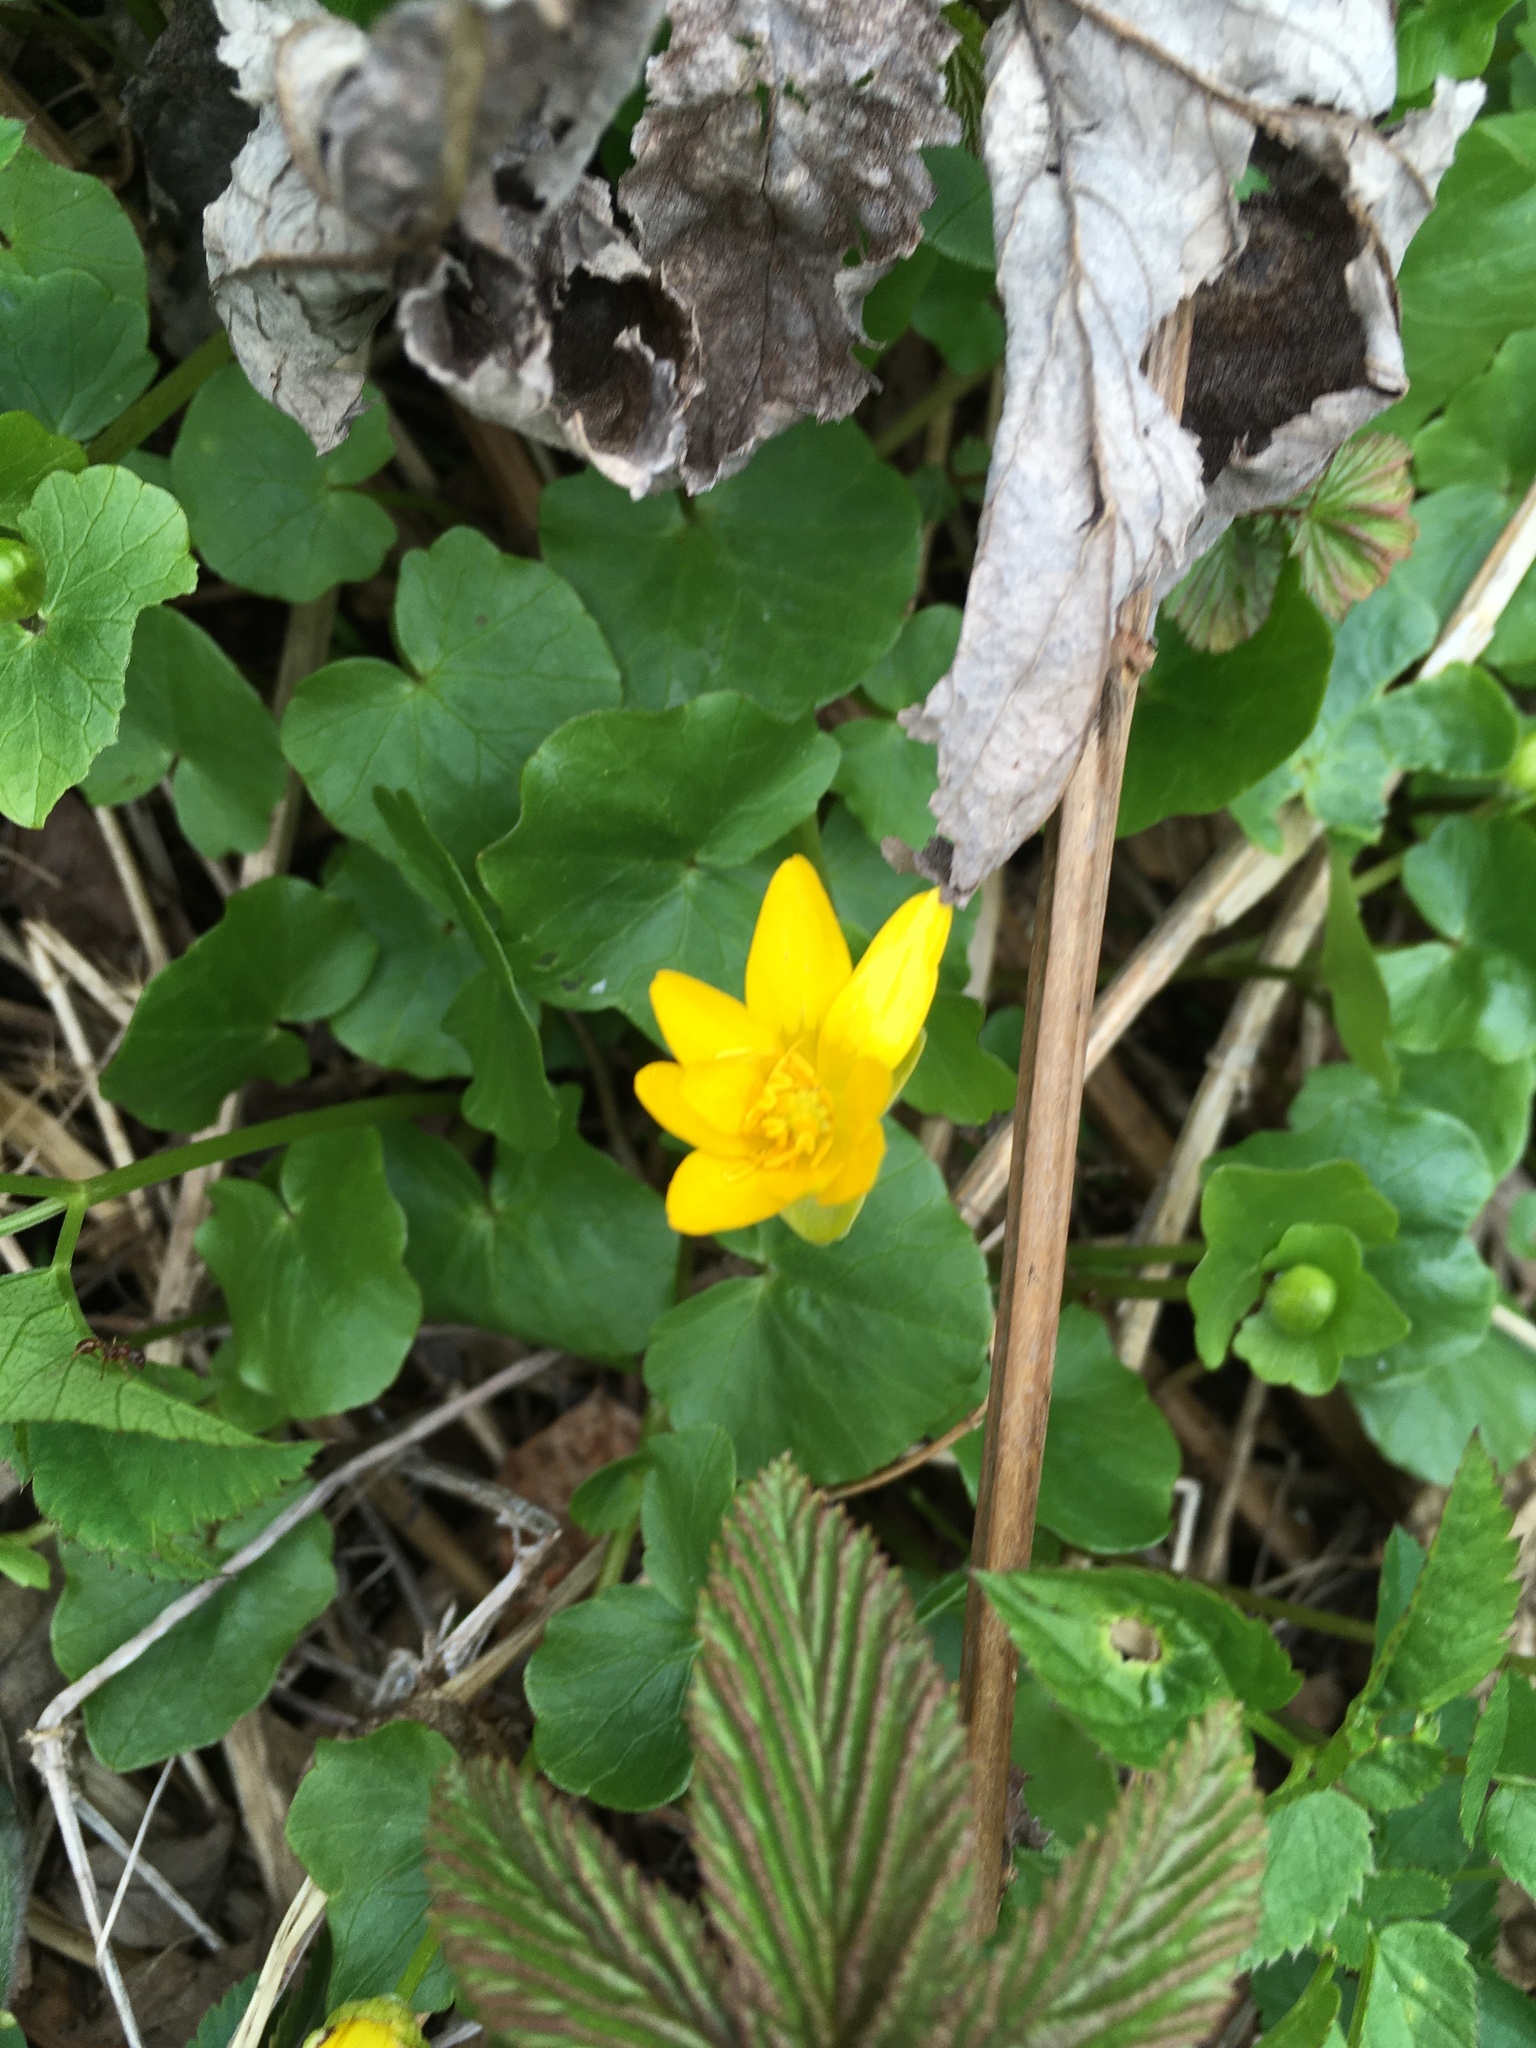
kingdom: Plantae
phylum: Tracheophyta
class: Magnoliopsida
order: Ranunculales
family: Ranunculaceae
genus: Ficaria
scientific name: Ficaria verna
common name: Lesser celandine
